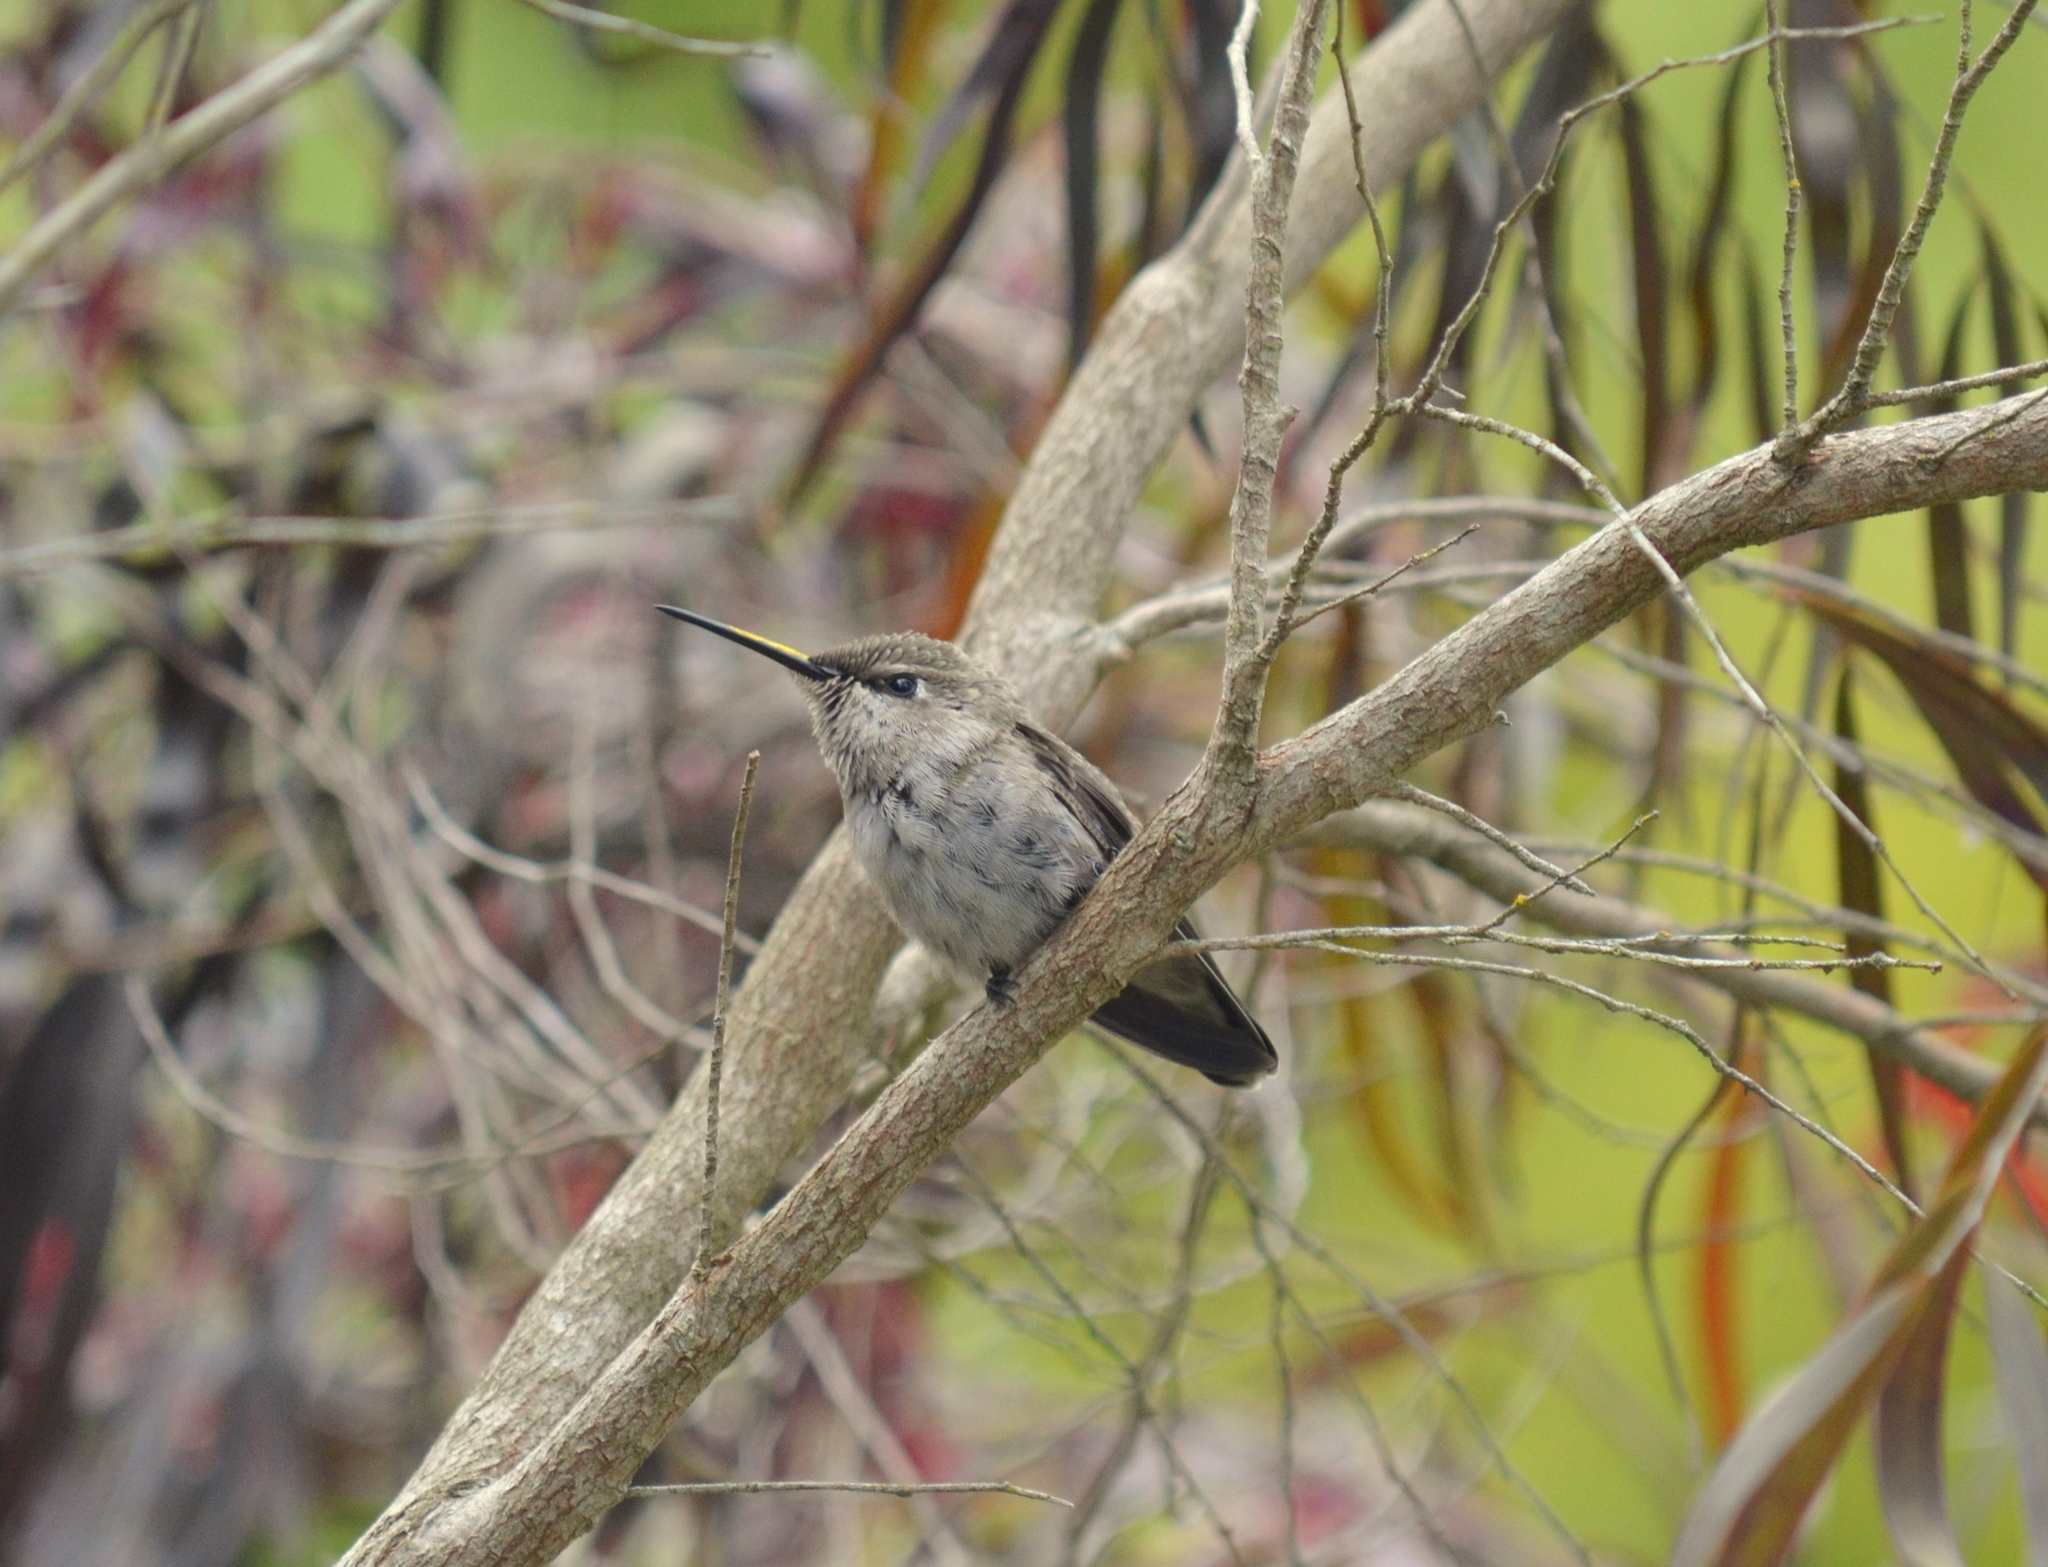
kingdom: Animalia
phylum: Chordata
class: Aves
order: Apodiformes
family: Trochilidae
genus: Calypte
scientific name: Calypte anna
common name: Anna's hummingbird
